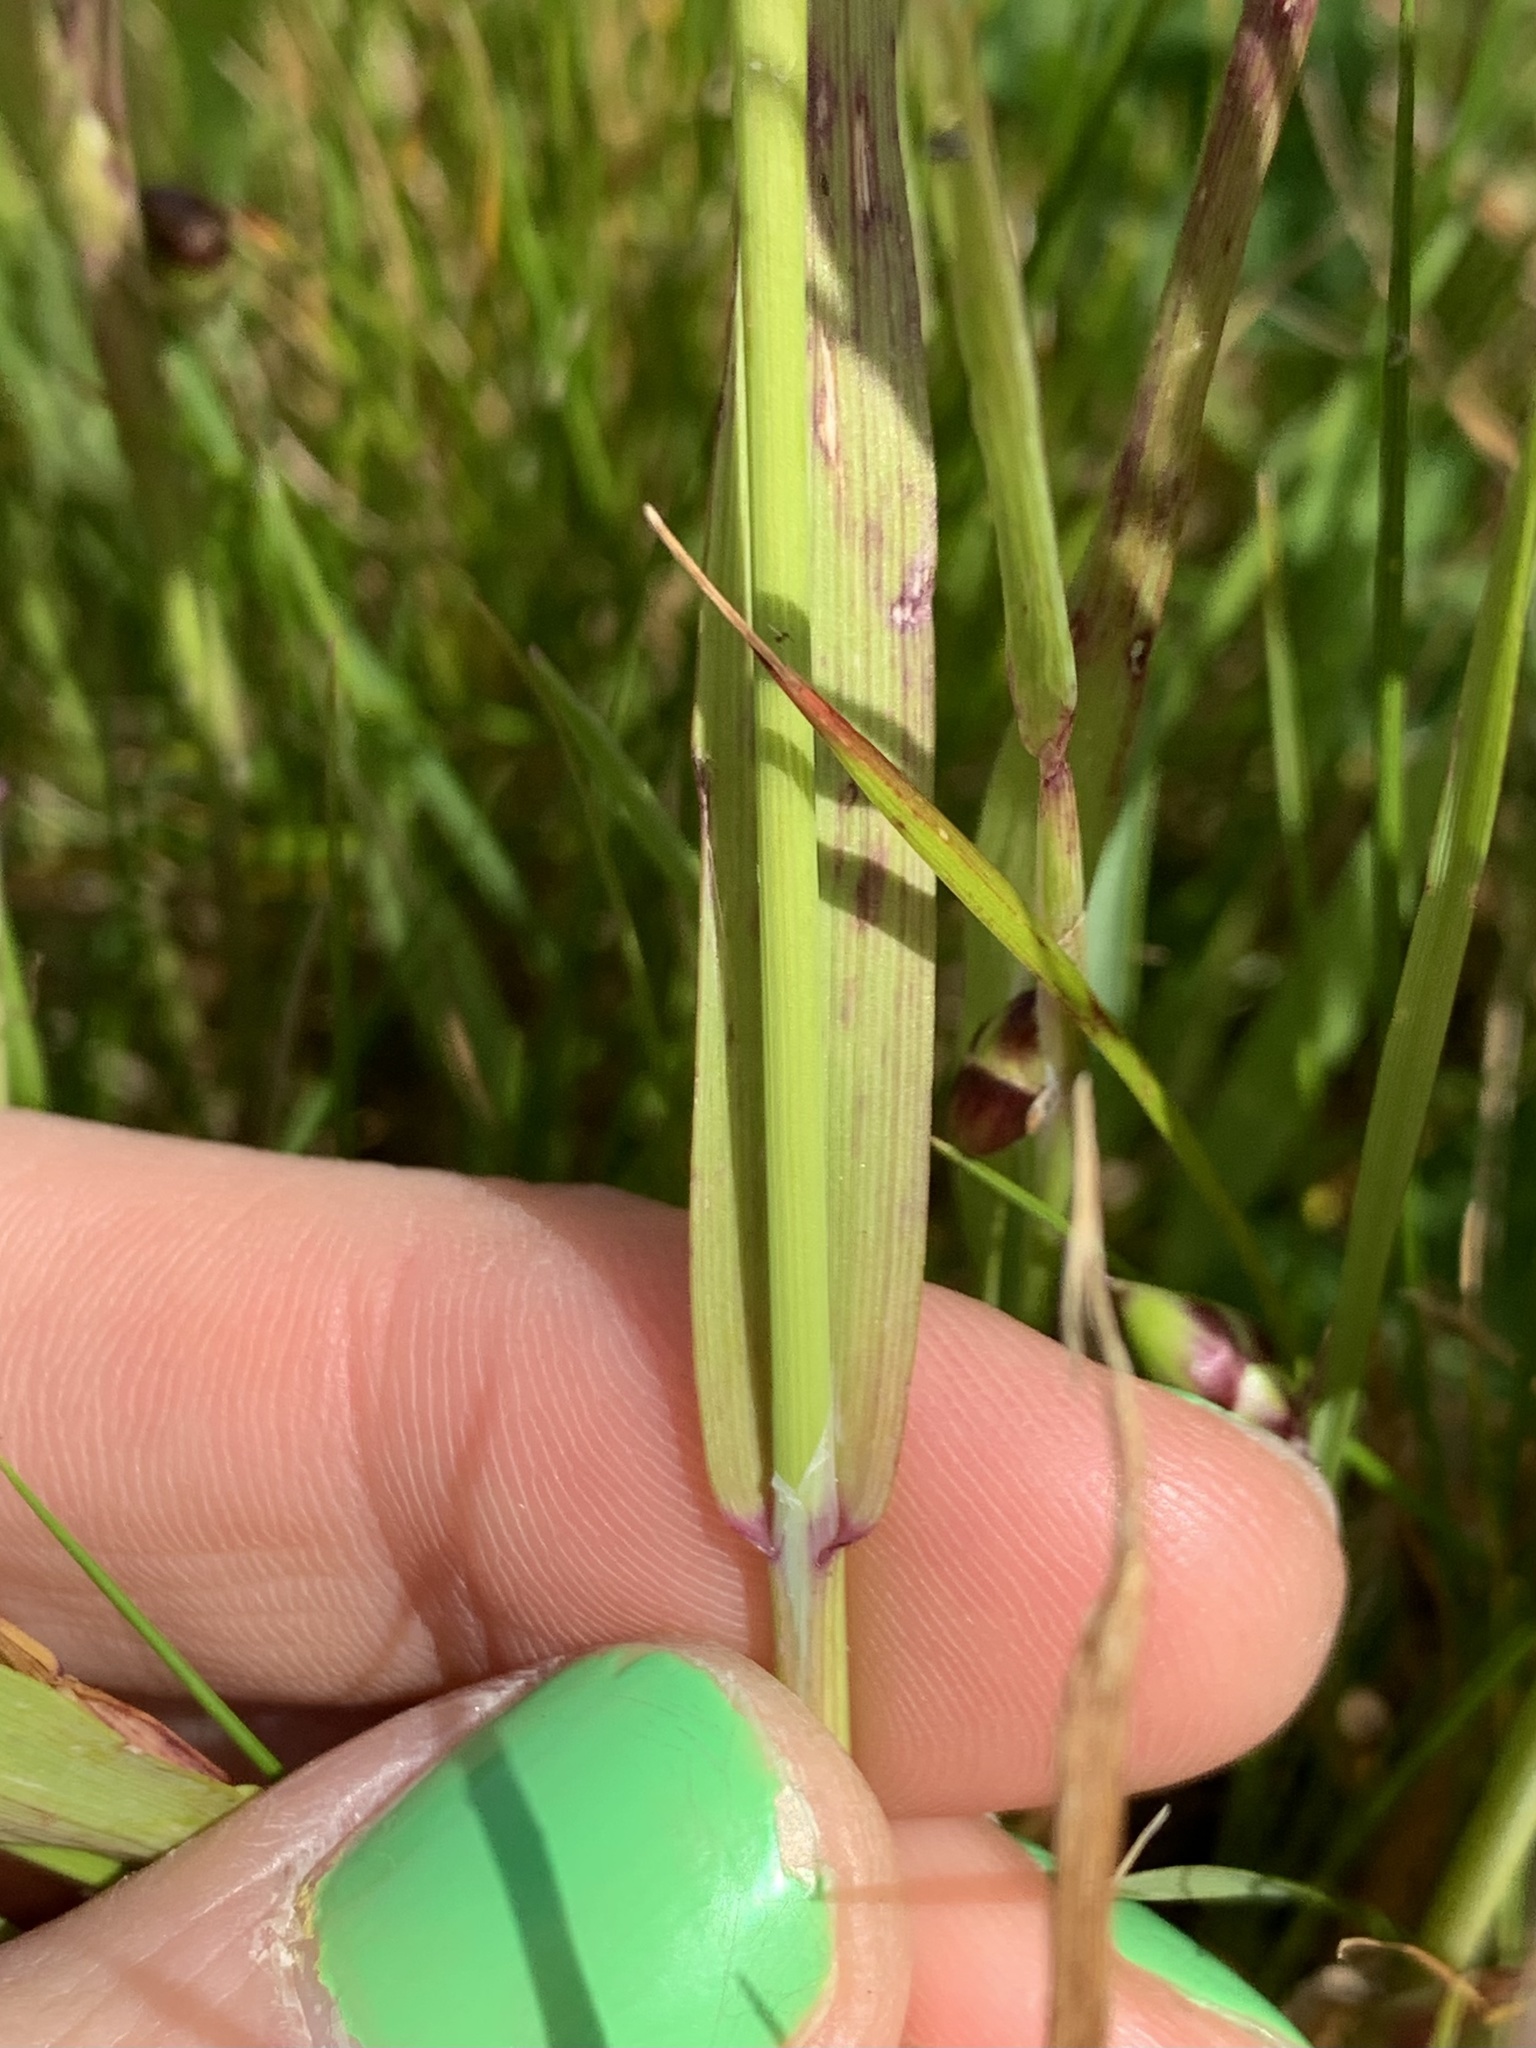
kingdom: Plantae
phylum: Tracheophyta
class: Liliopsida
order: Poales
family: Poaceae
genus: Briza
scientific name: Briza maxima
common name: Big quakinggrass
